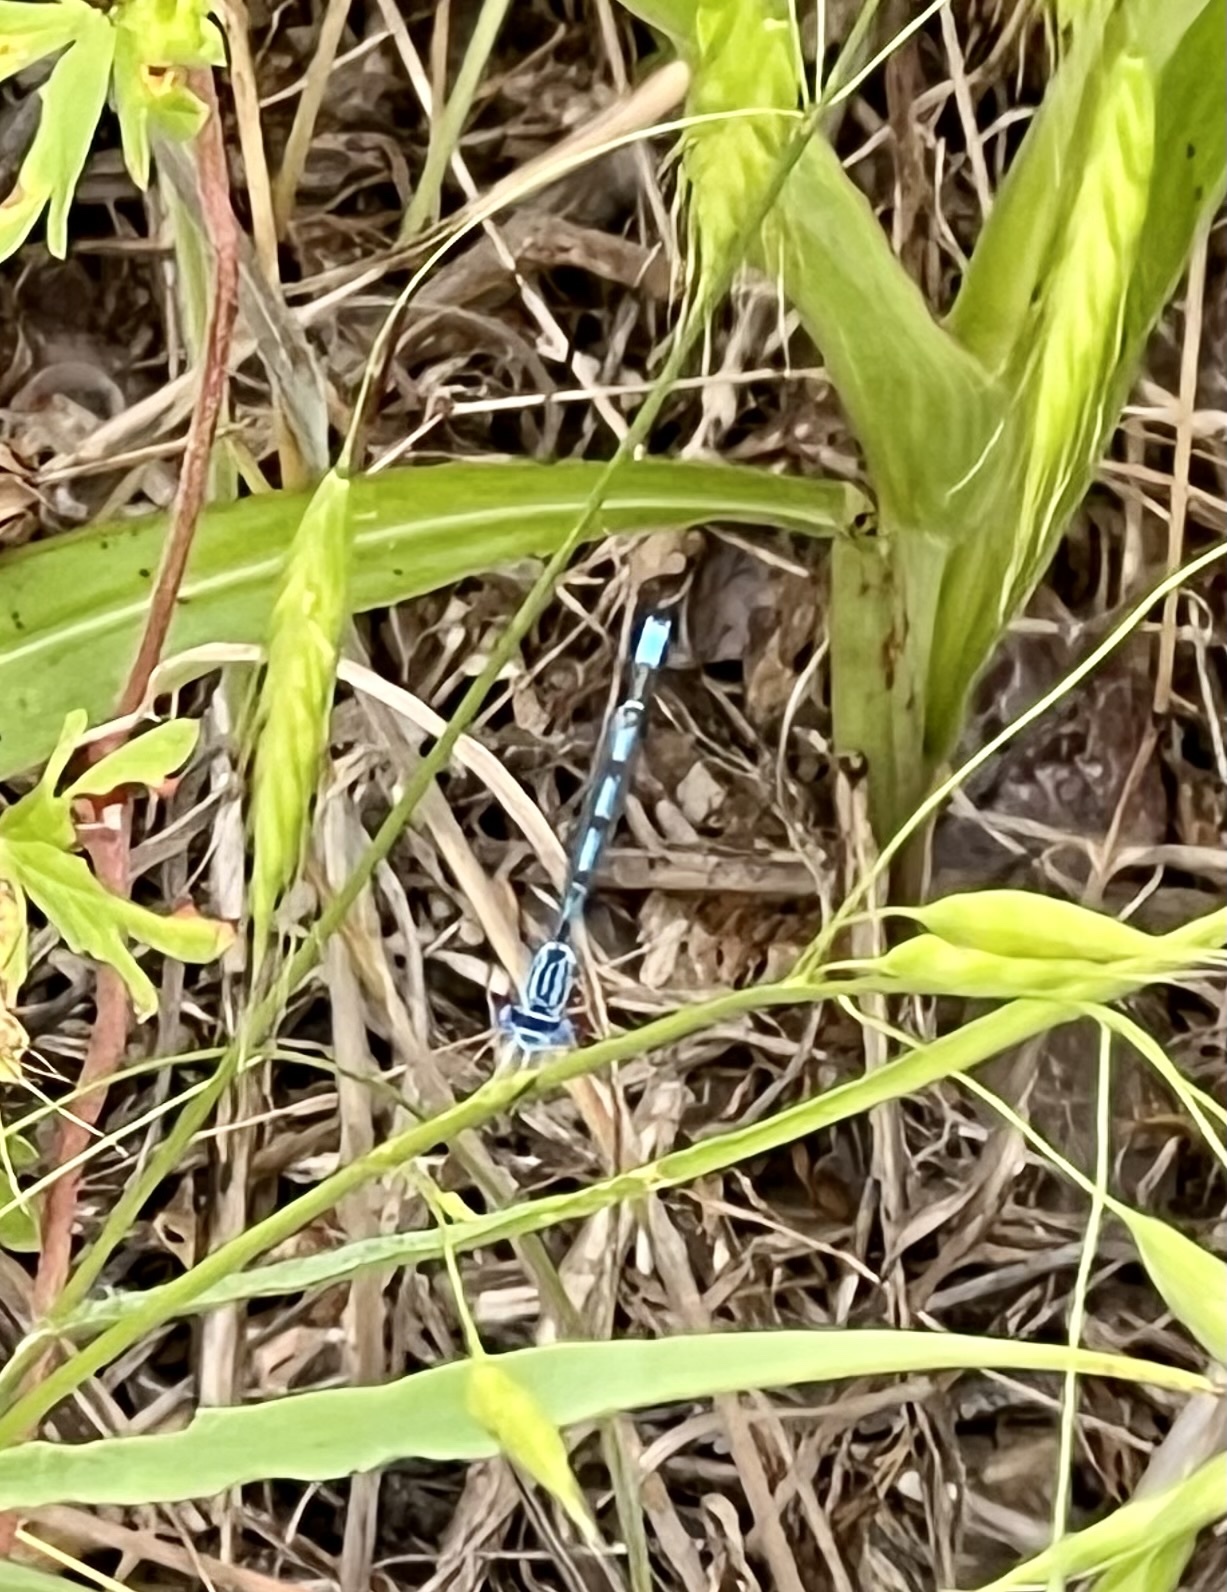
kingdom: Animalia
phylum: Arthropoda
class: Insecta
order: Odonata
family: Coenagrionidae
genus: Enallagma
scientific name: Enallagma basidens
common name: Double-striped bluet
